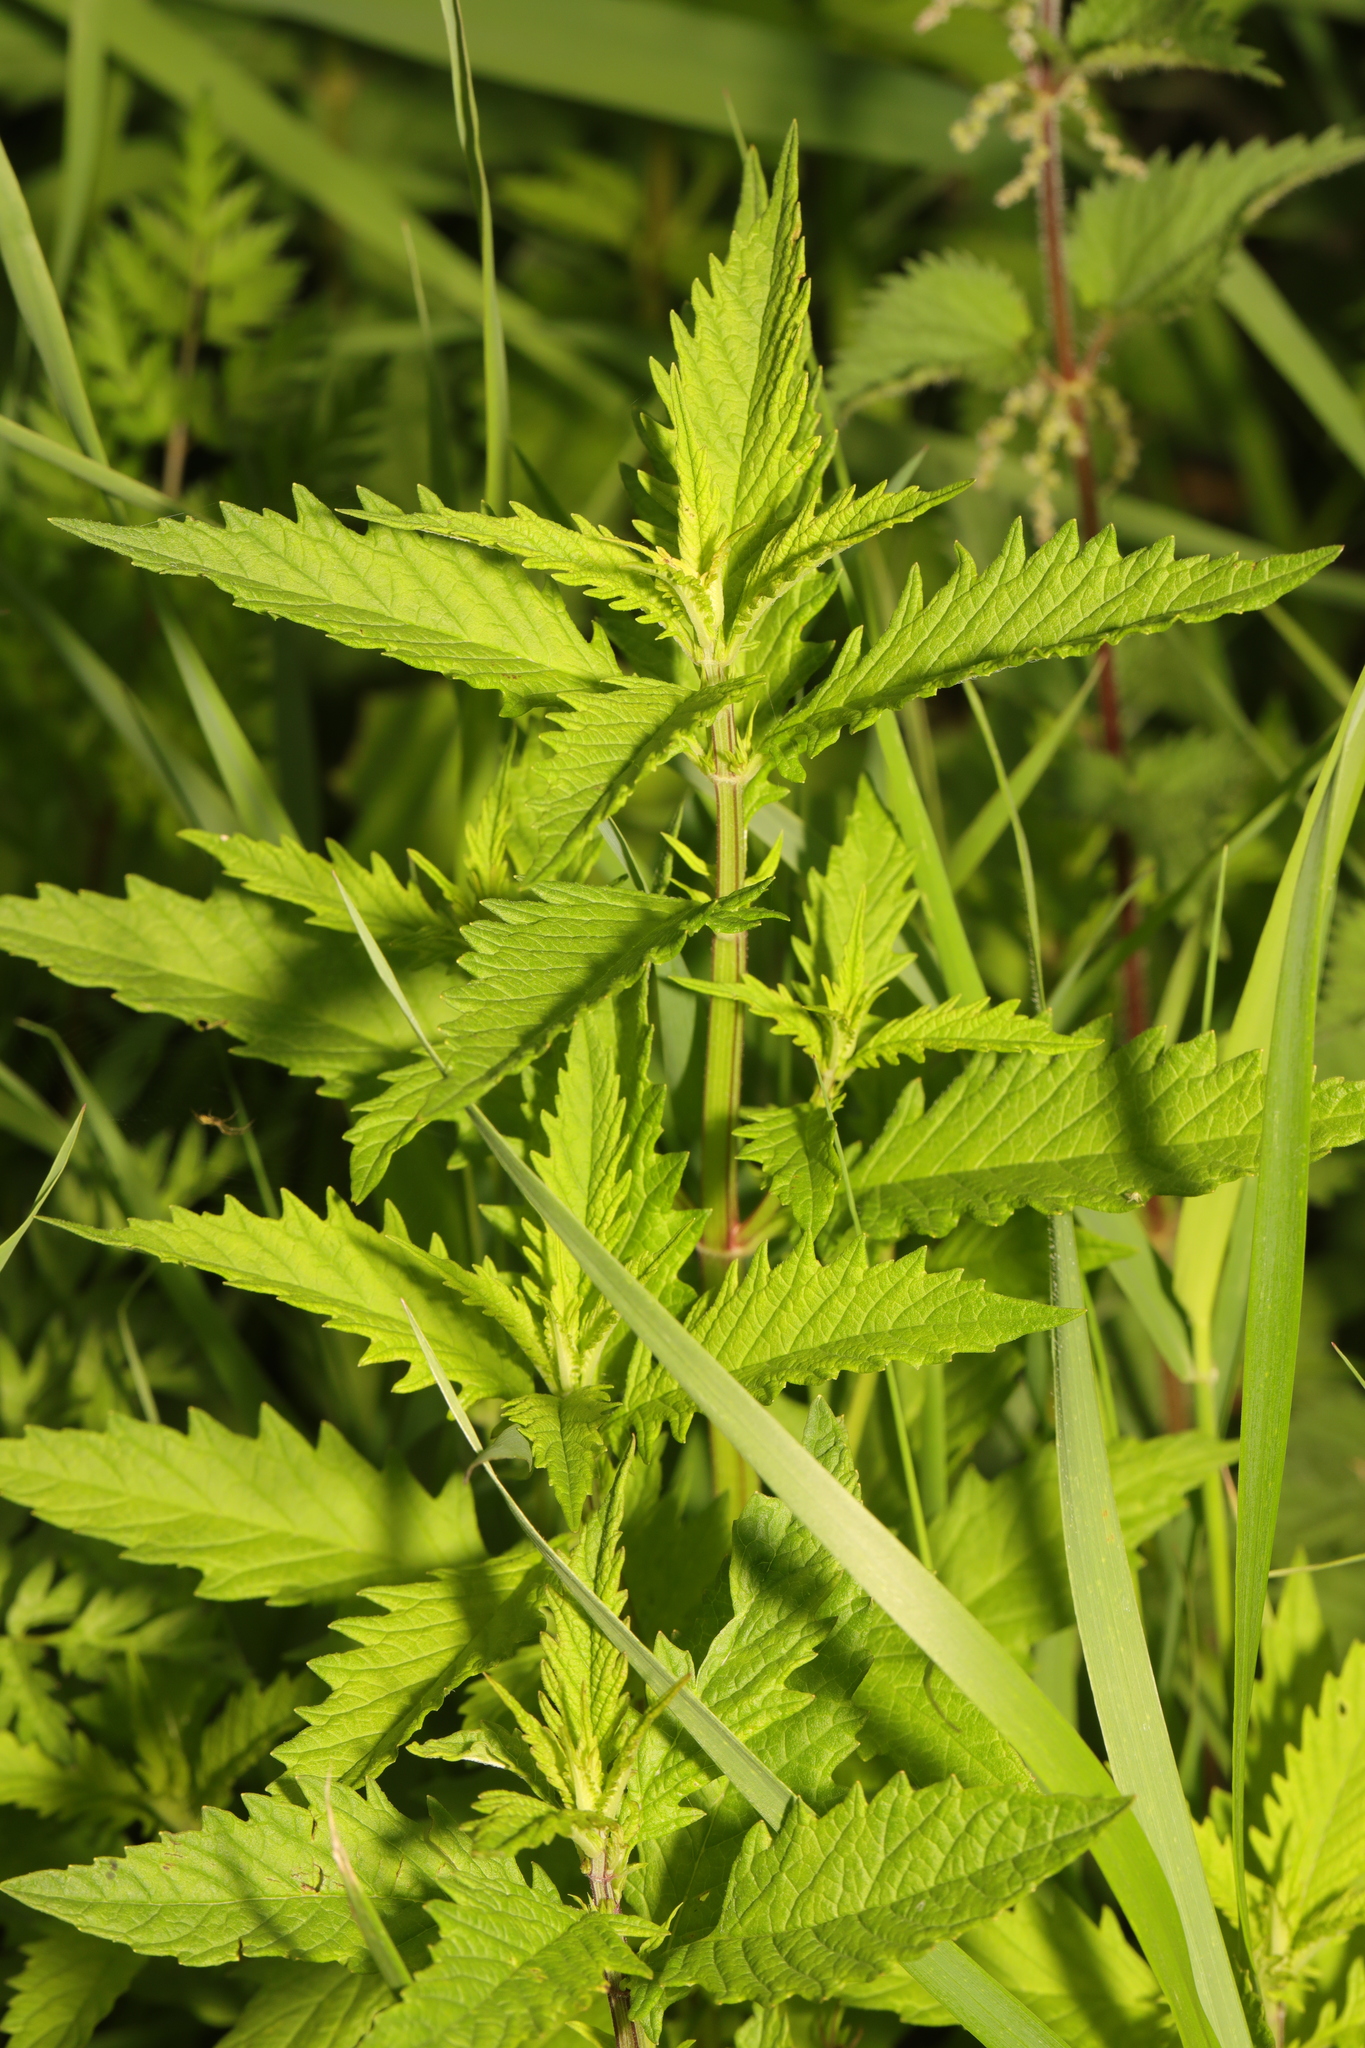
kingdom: Plantae
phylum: Tracheophyta
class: Magnoliopsida
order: Lamiales
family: Lamiaceae
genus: Lycopus
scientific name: Lycopus europaeus
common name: European bugleweed
